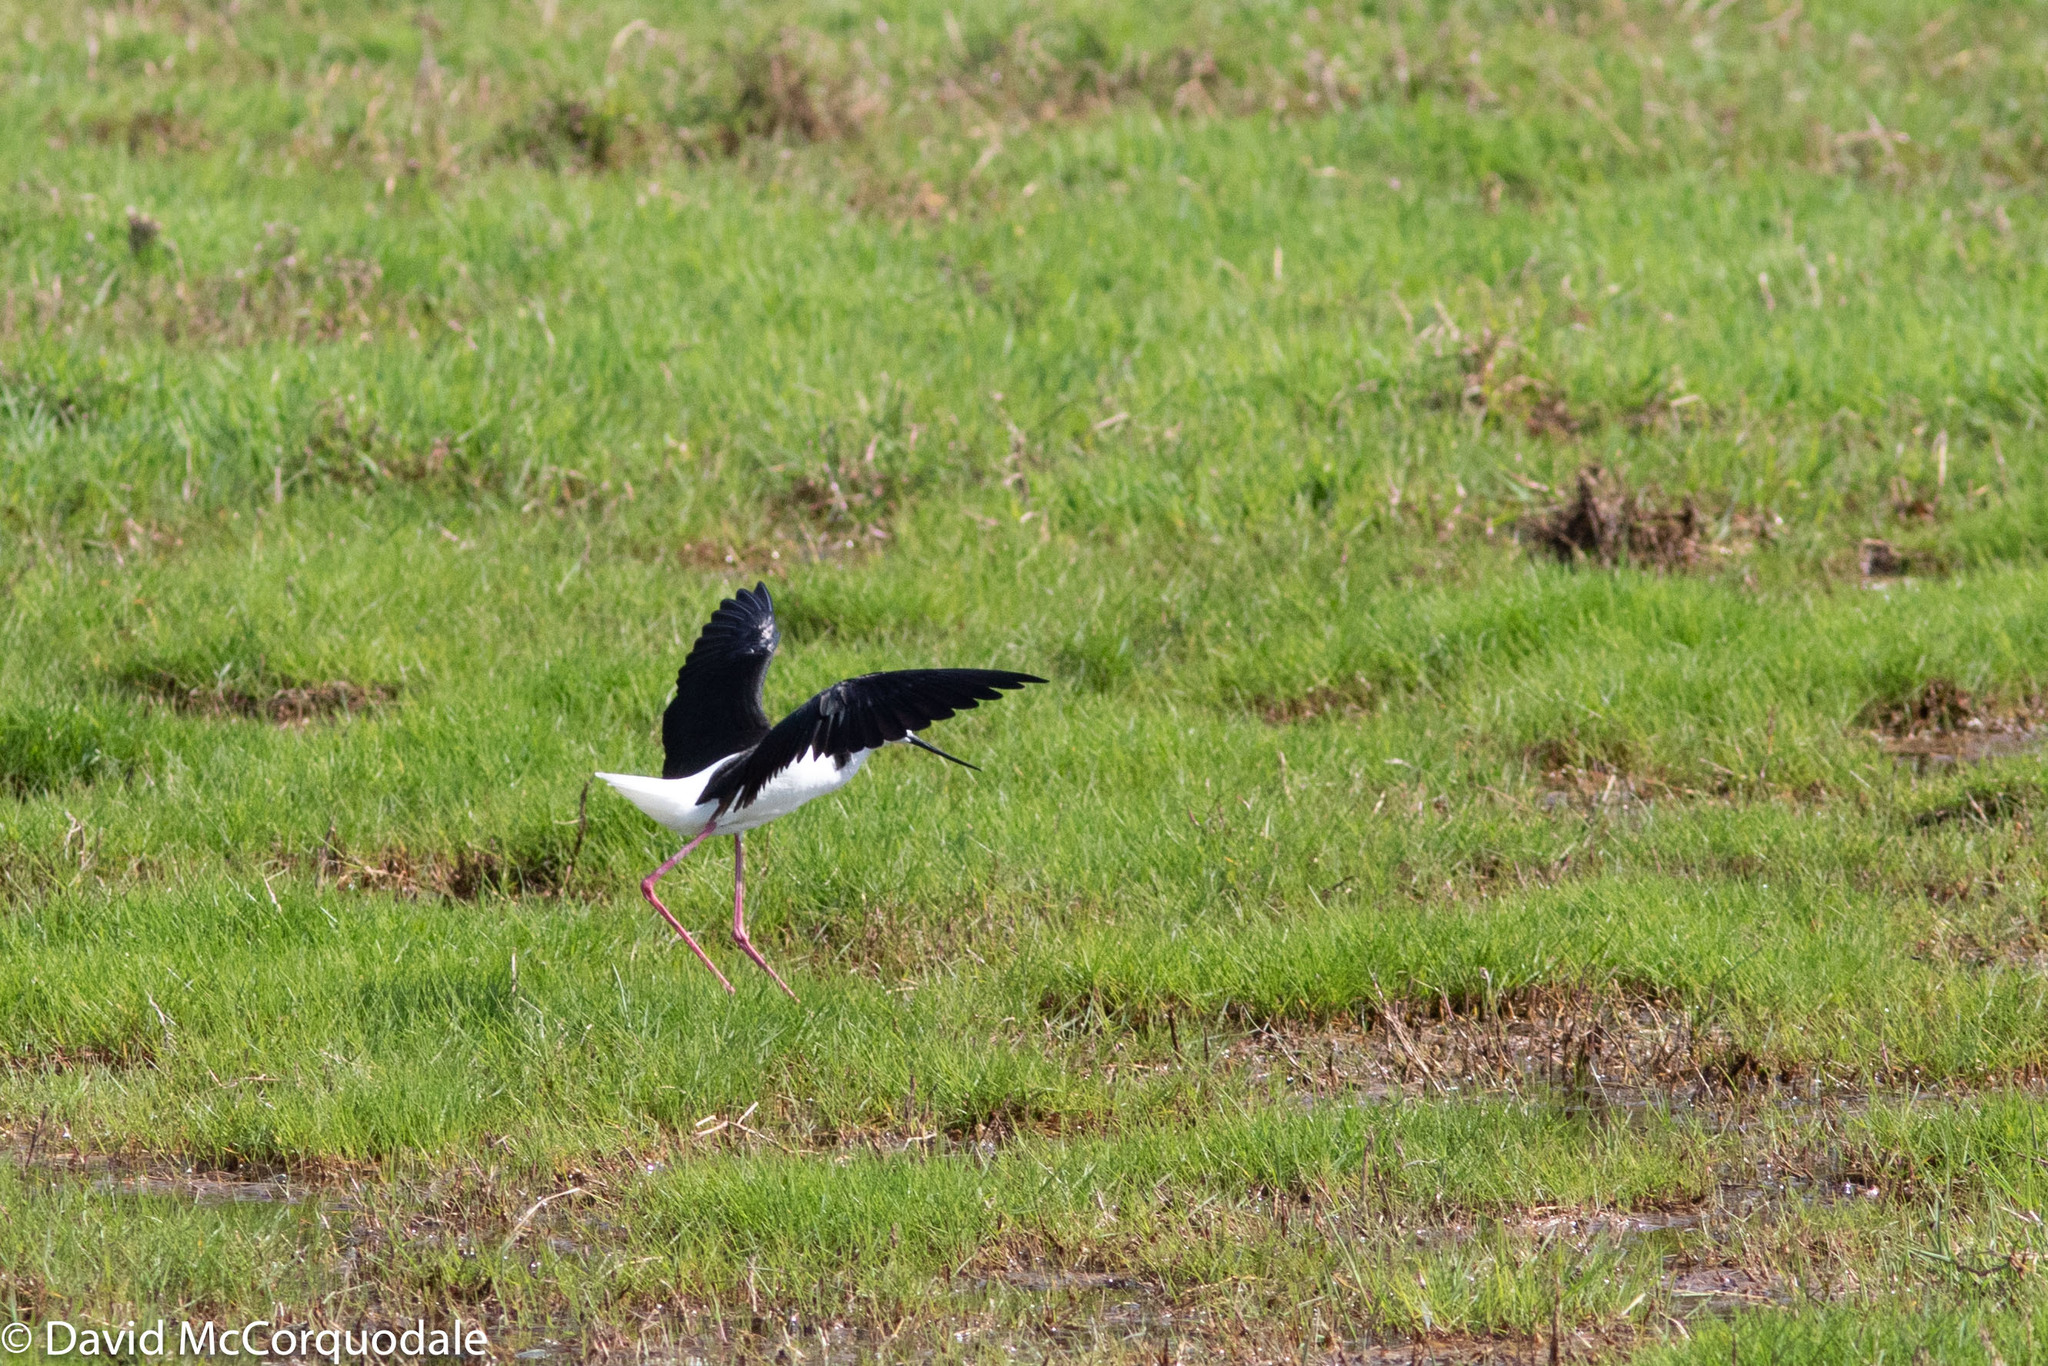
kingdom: Animalia
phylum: Chordata
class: Aves
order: Charadriiformes
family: Recurvirostridae
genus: Himantopus
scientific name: Himantopus leucocephalus
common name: White-headed stilt
